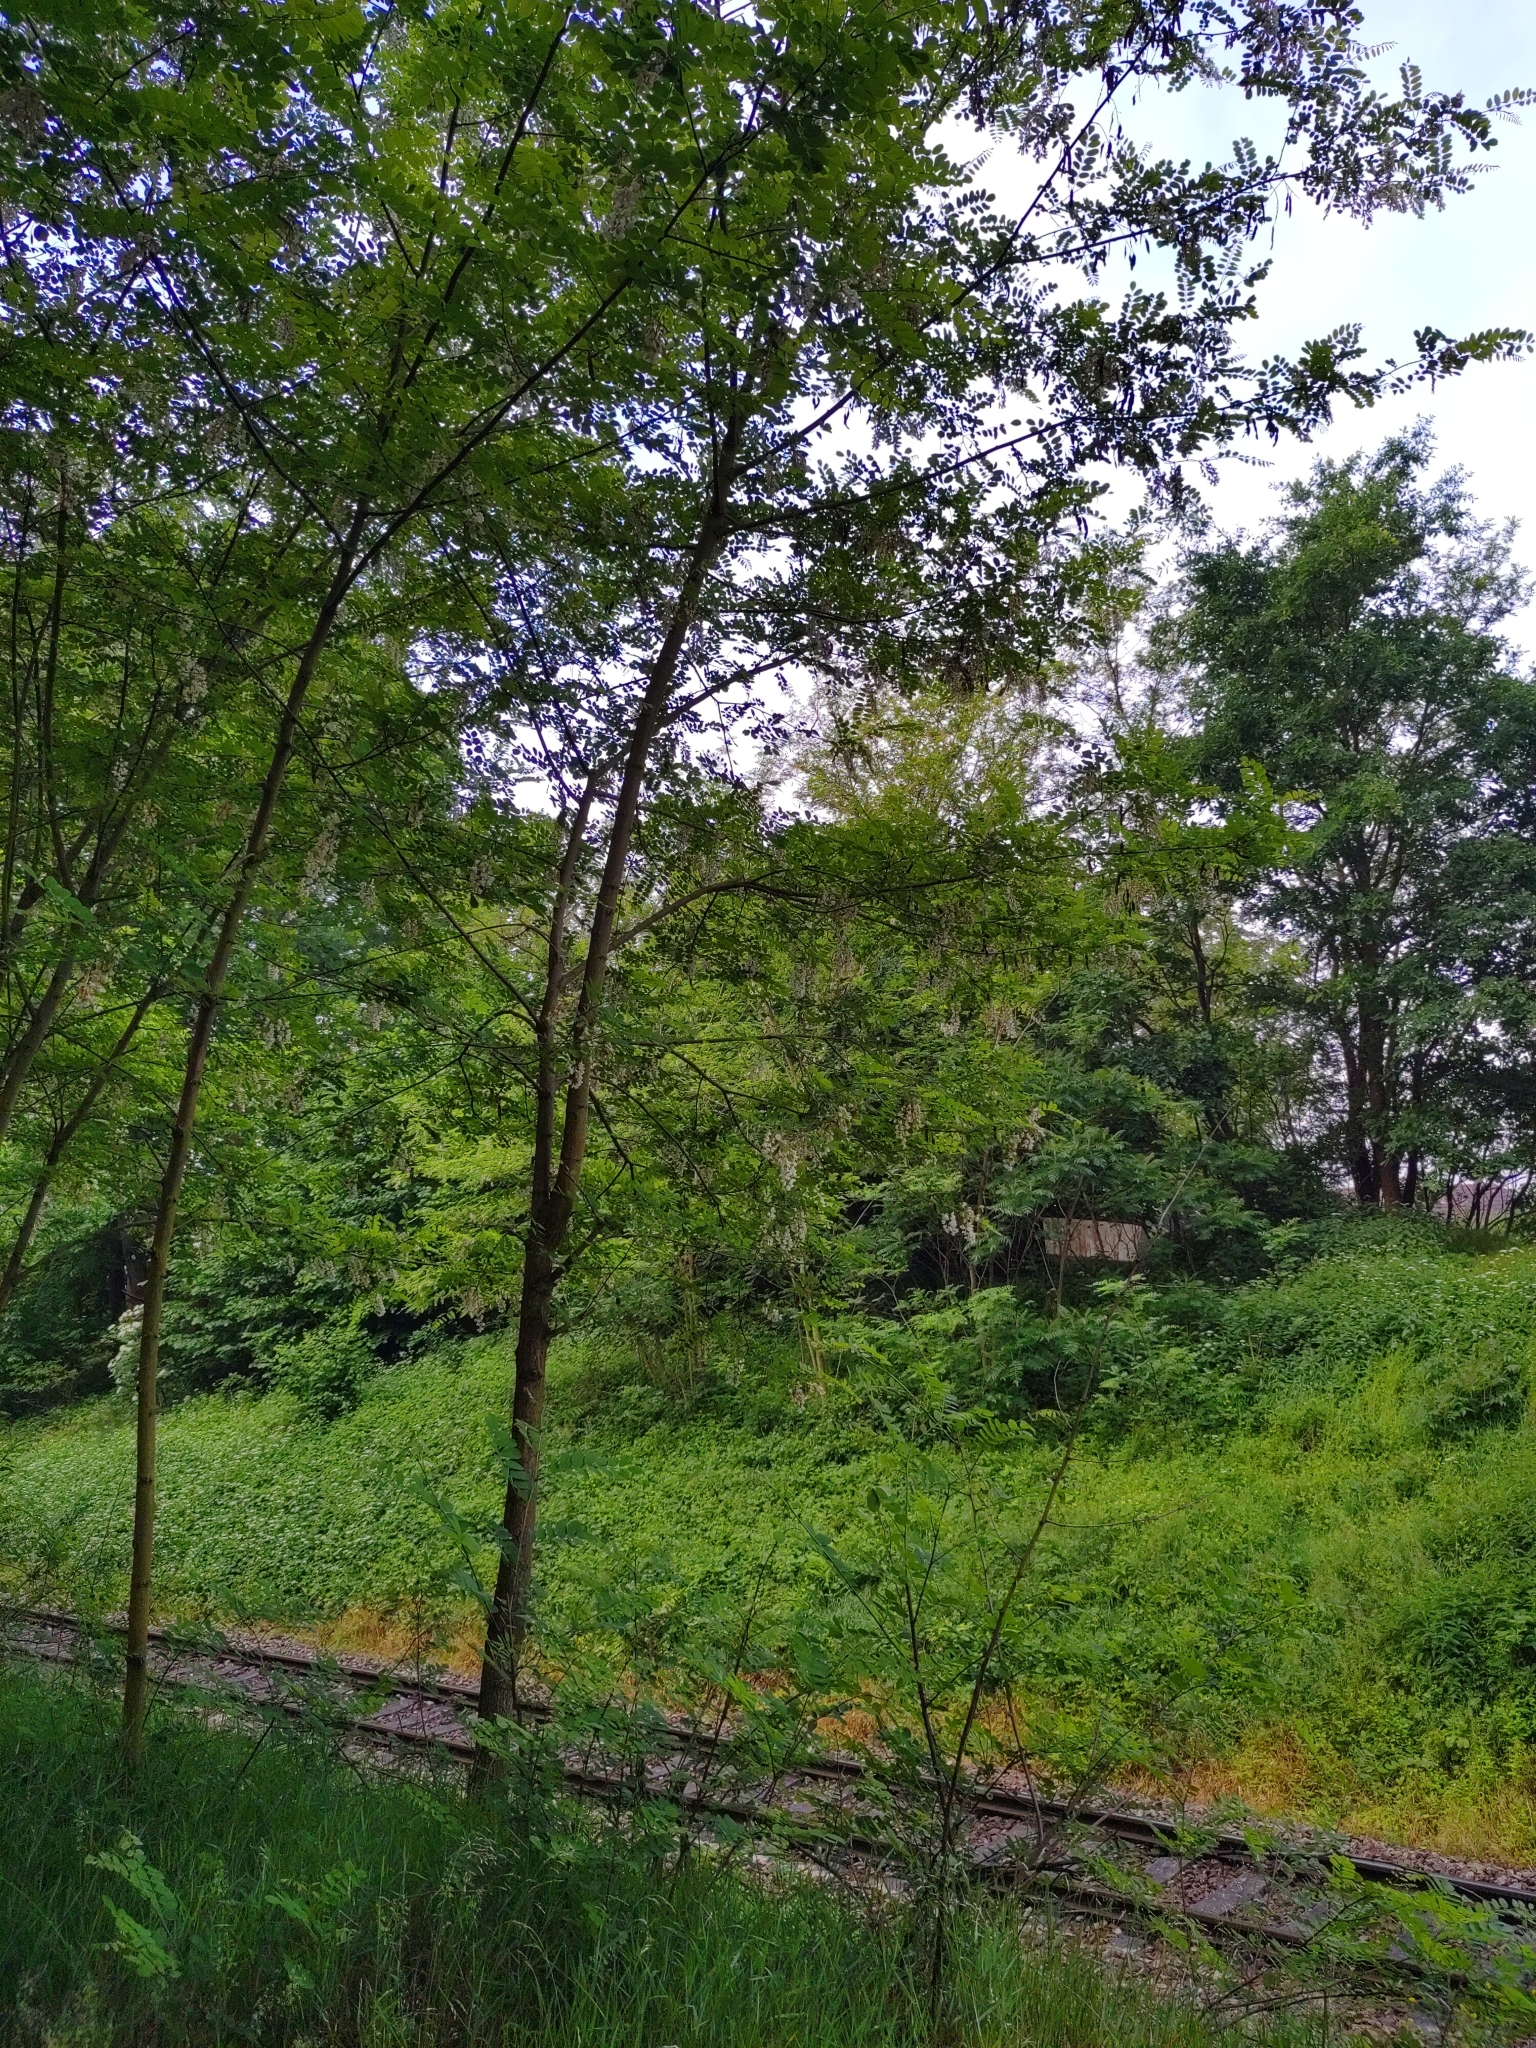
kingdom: Plantae
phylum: Tracheophyta
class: Magnoliopsida
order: Fabales
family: Fabaceae
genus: Robinia
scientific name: Robinia pseudoacacia
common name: Black locust
